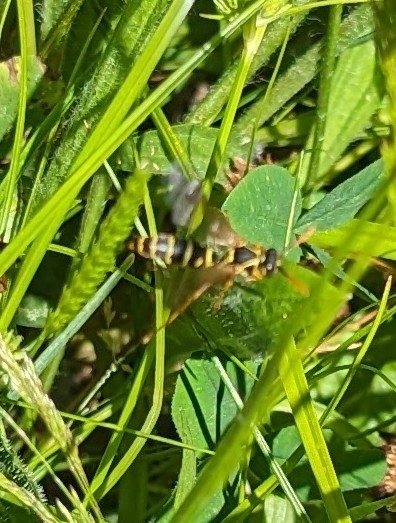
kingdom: Animalia
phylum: Arthropoda
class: Insecta
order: Hymenoptera
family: Eumenidae
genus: Polistes
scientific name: Polistes chinensis
